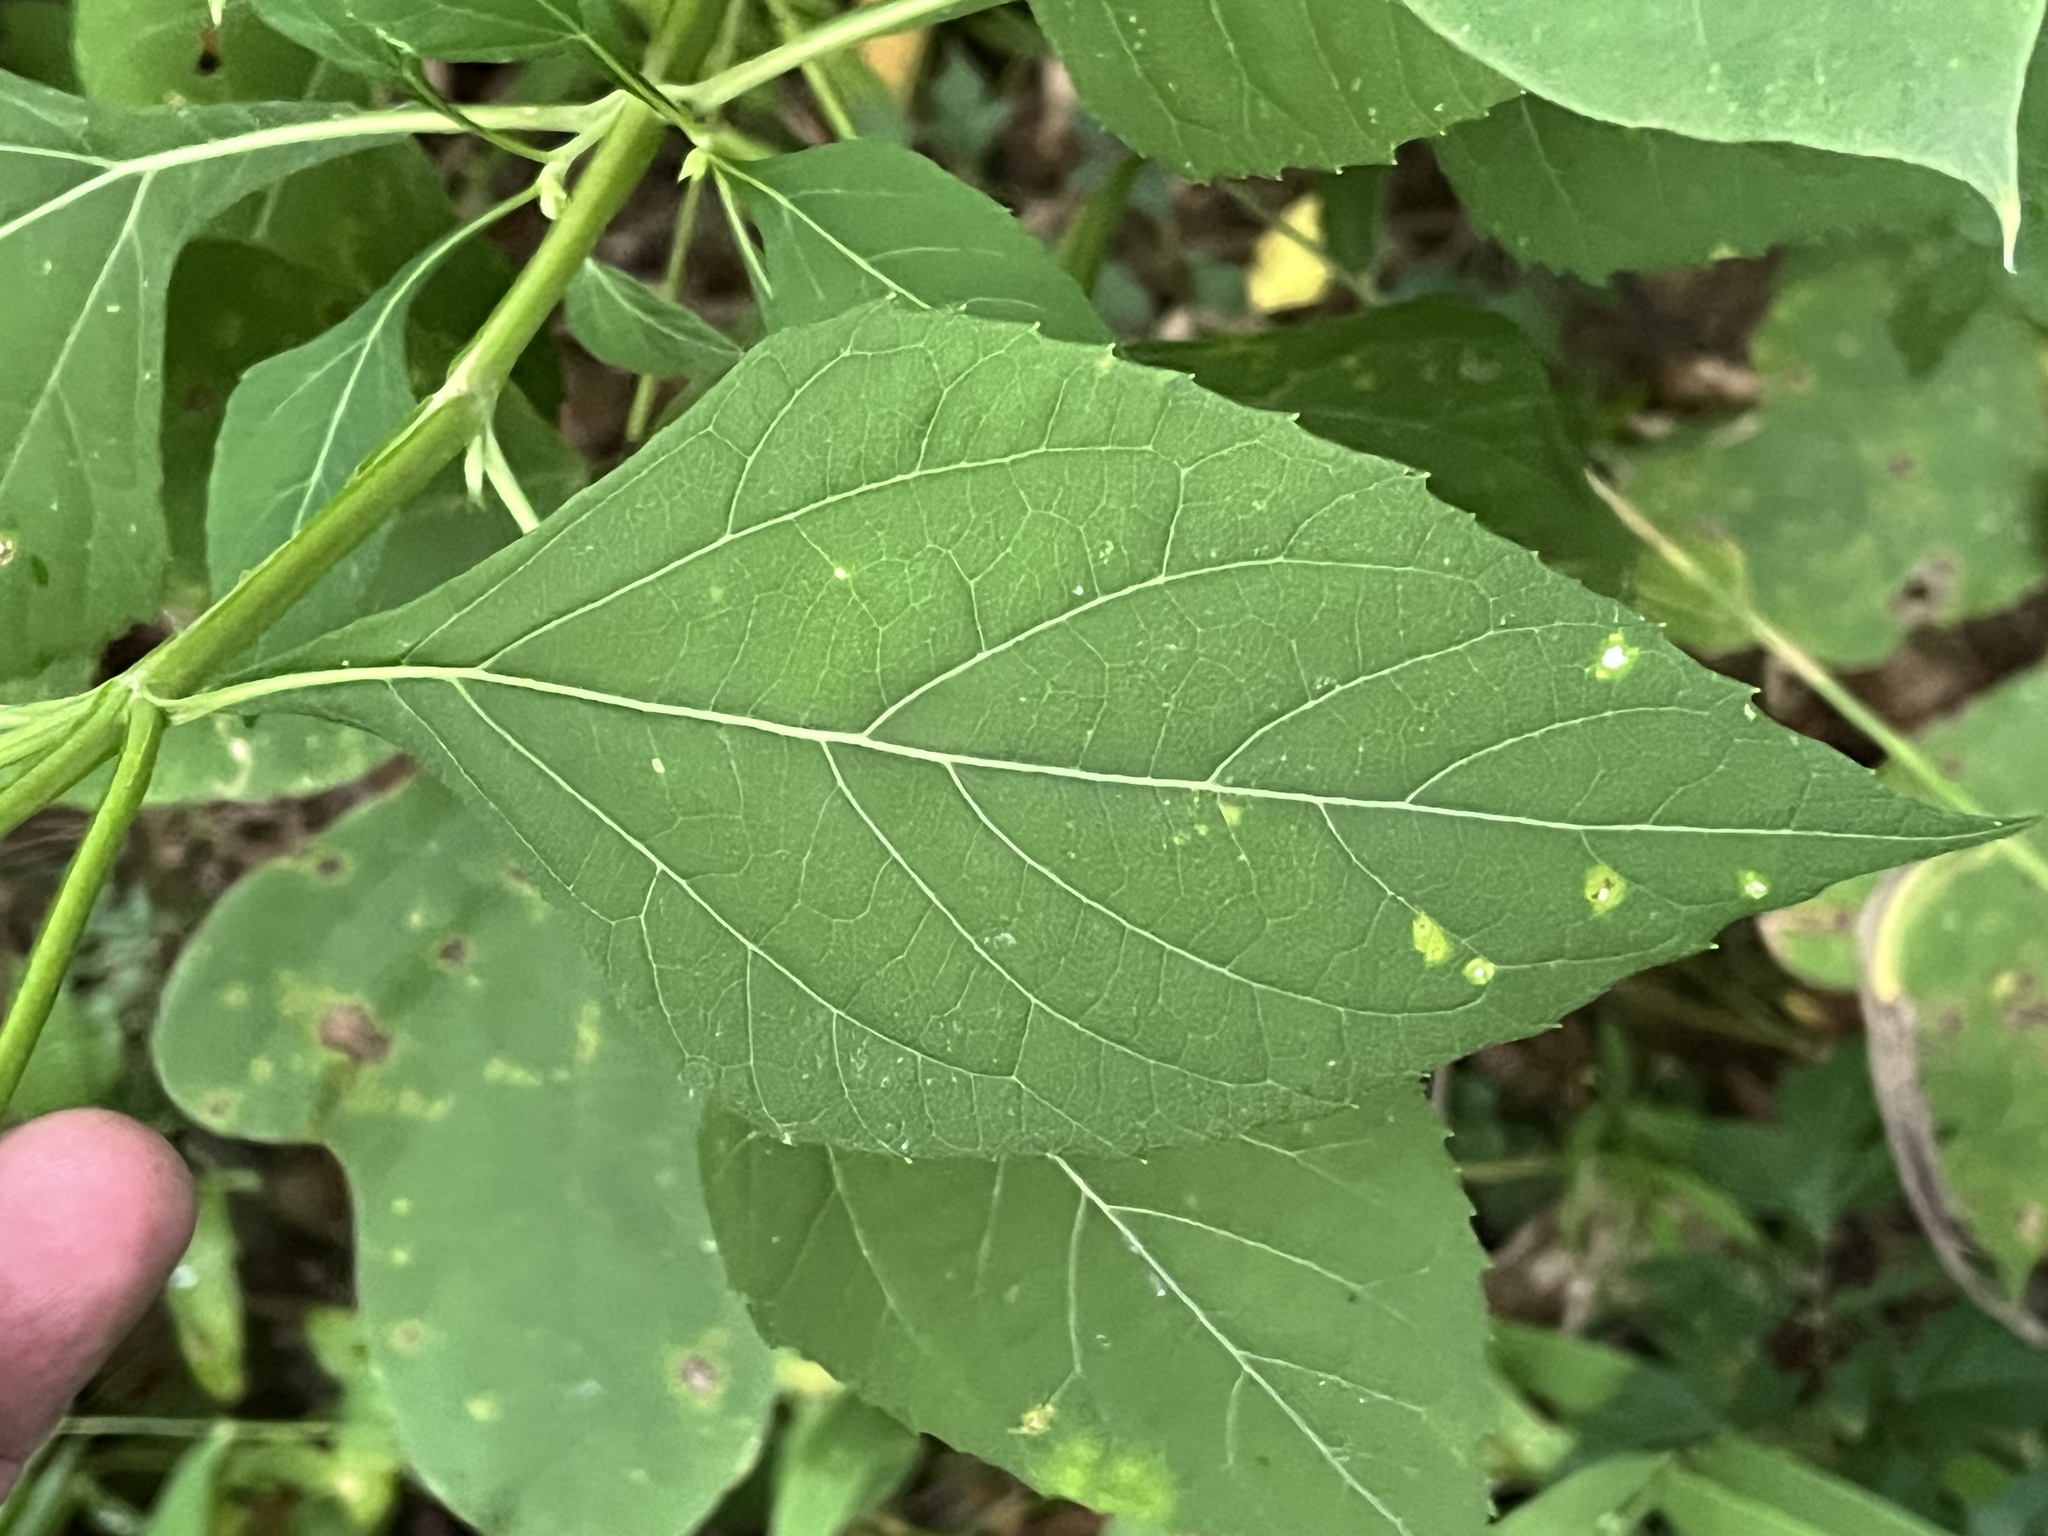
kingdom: Plantae
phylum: Tracheophyta
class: Magnoliopsida
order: Asterales
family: Asteraceae
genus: Verbesina
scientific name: Verbesina occidentalis
